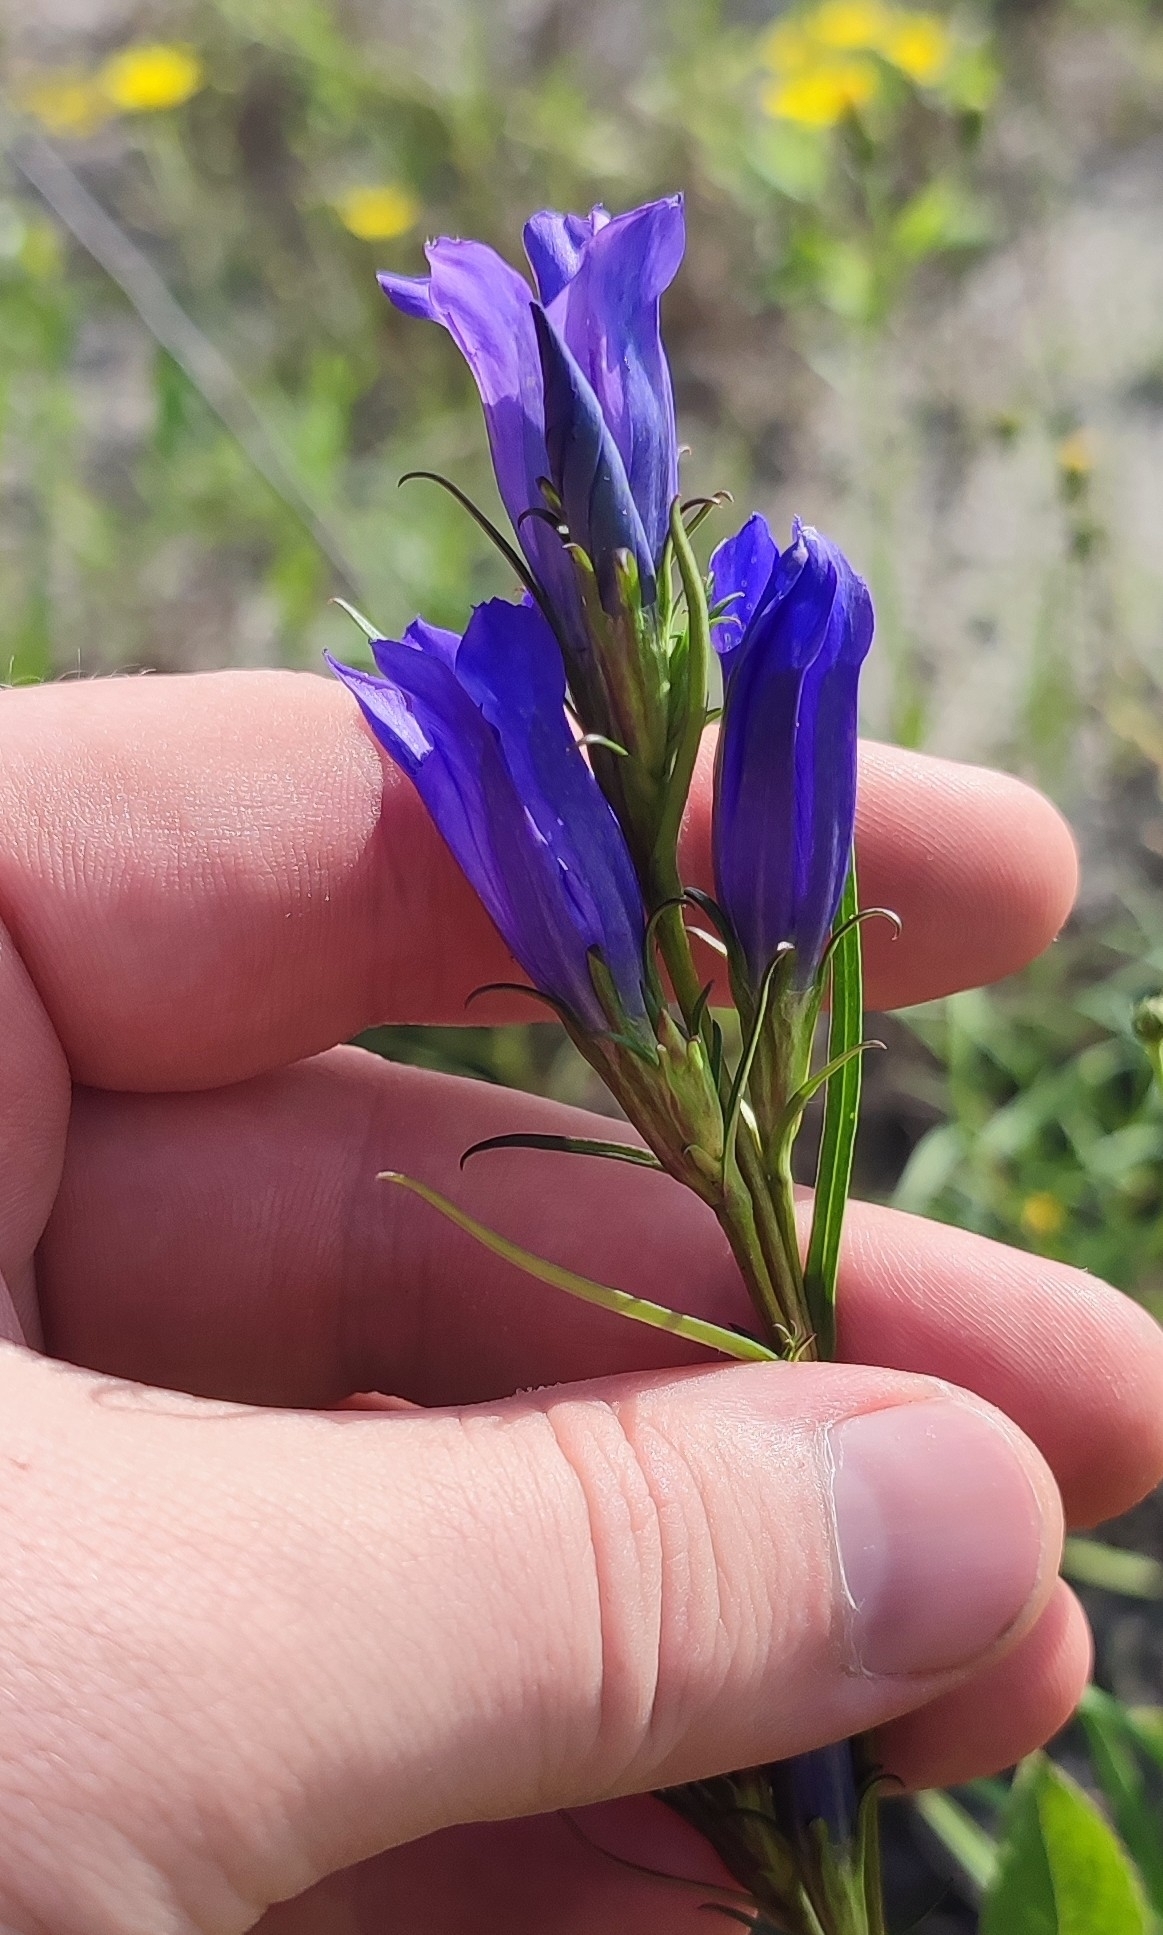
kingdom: Plantae
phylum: Tracheophyta
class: Magnoliopsida
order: Gentianales
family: Gentianaceae
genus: Gentiana
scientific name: Gentiana pneumonanthe
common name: Marsh gentian
